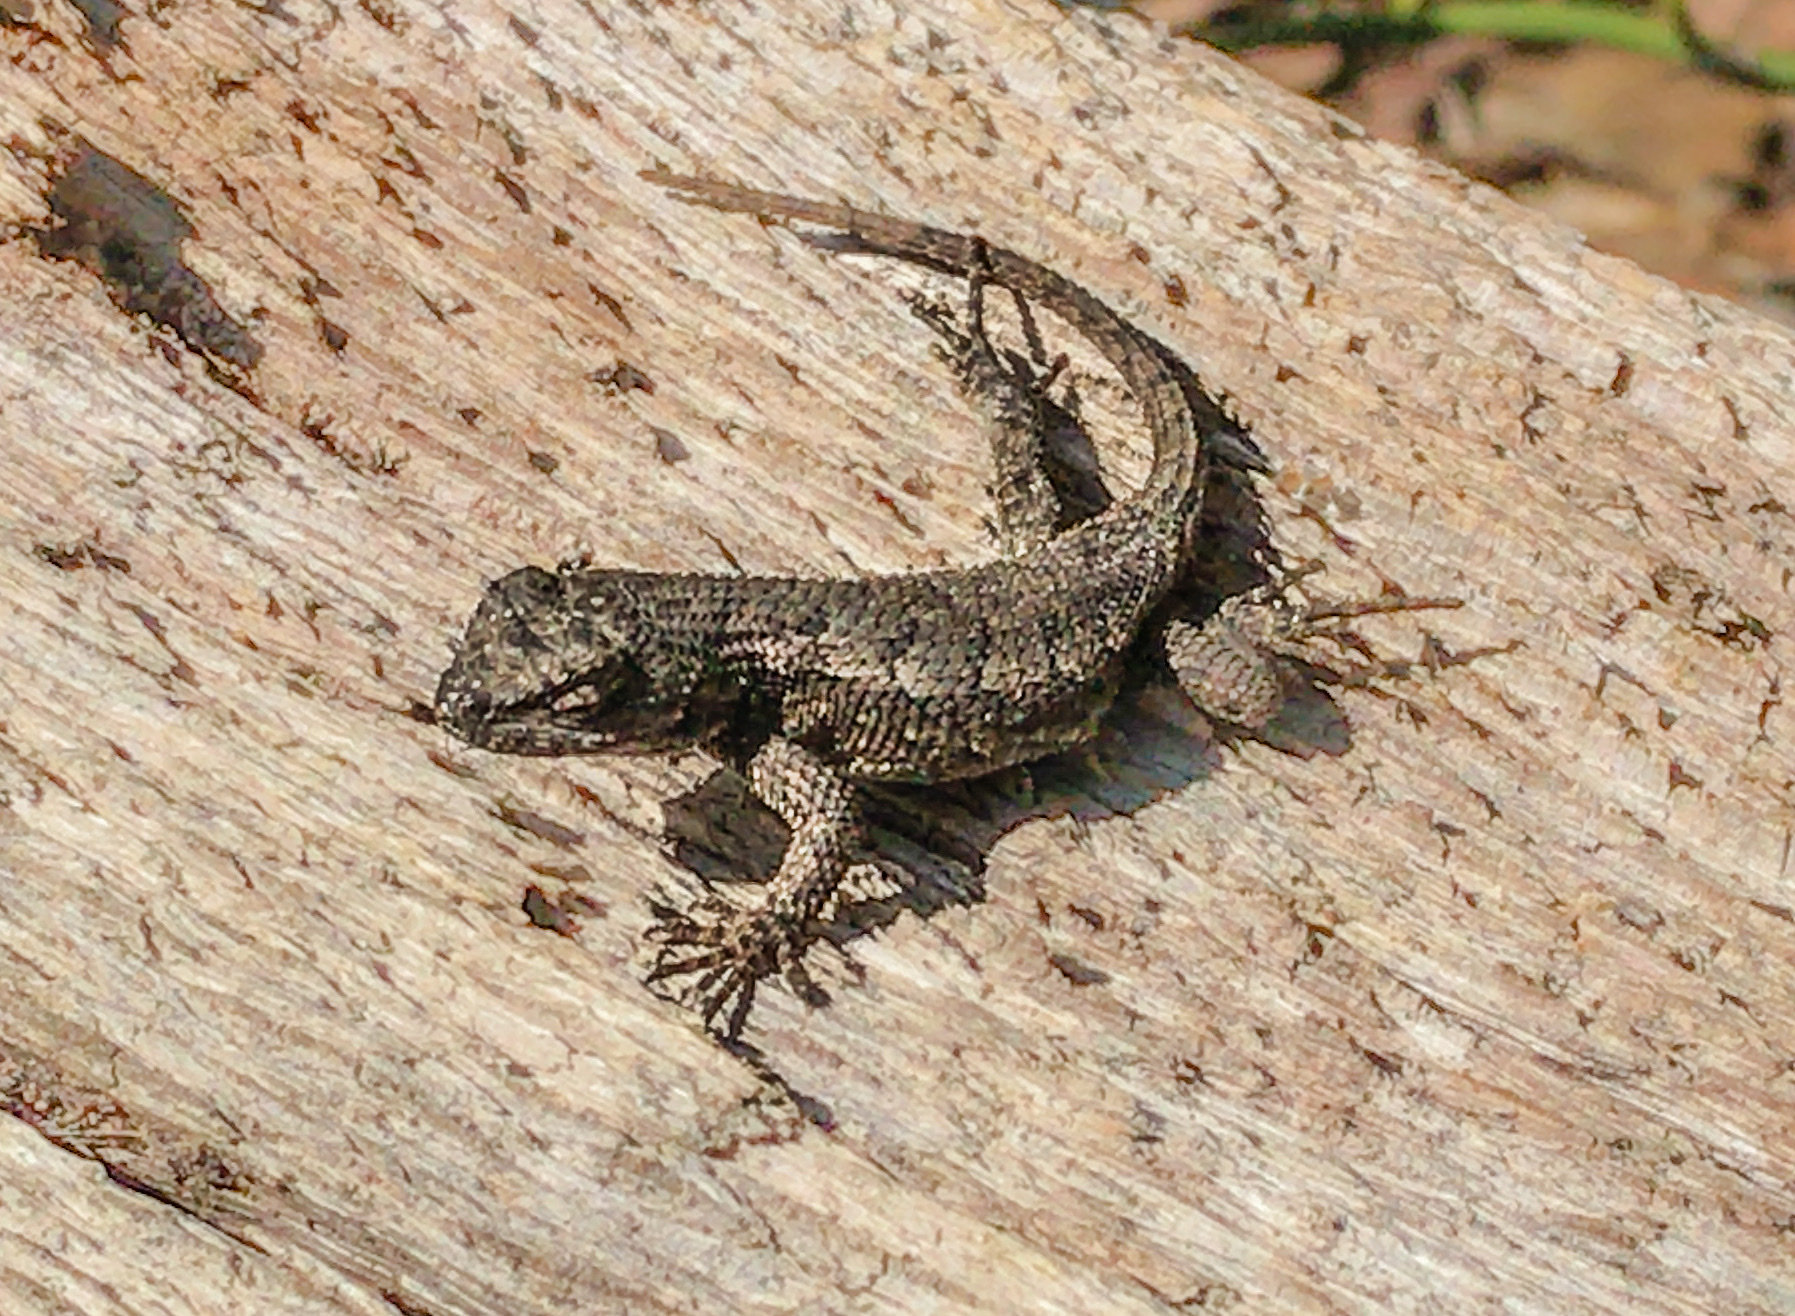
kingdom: Animalia
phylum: Chordata
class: Squamata
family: Phrynosomatidae
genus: Sceloporus
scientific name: Sceloporus undulatus
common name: Eastern fence lizard
